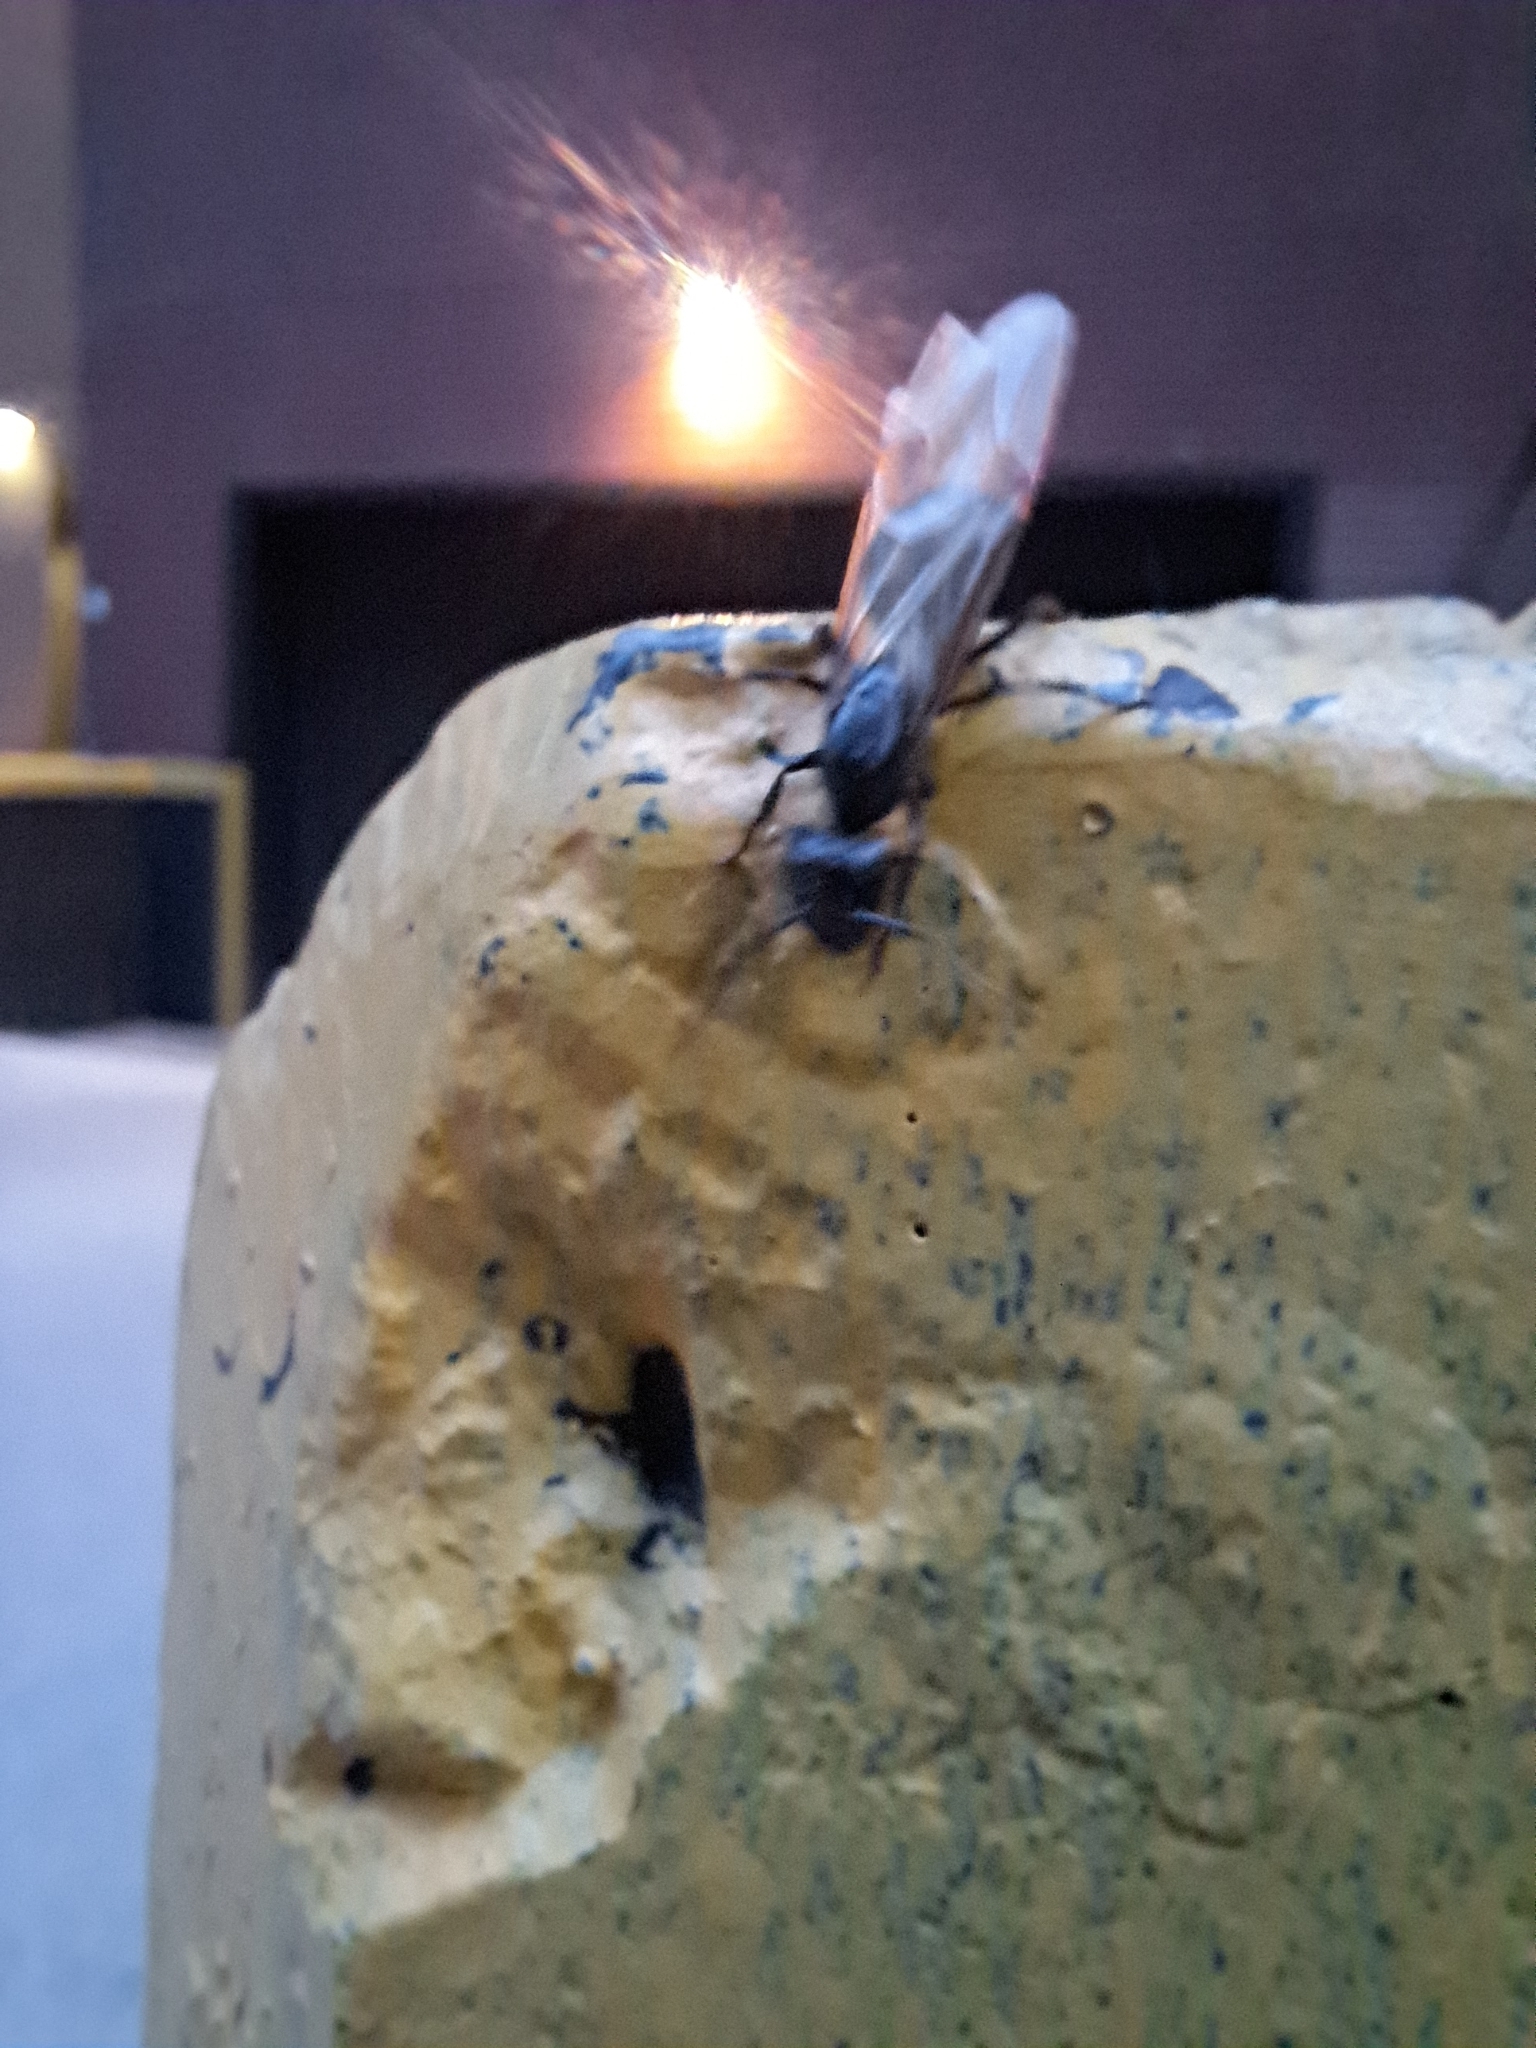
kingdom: Animalia
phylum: Arthropoda
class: Insecta
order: Hymenoptera
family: Formicidae
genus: Camponotus
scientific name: Camponotus pennsylvanicus
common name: Black carpenter ant
